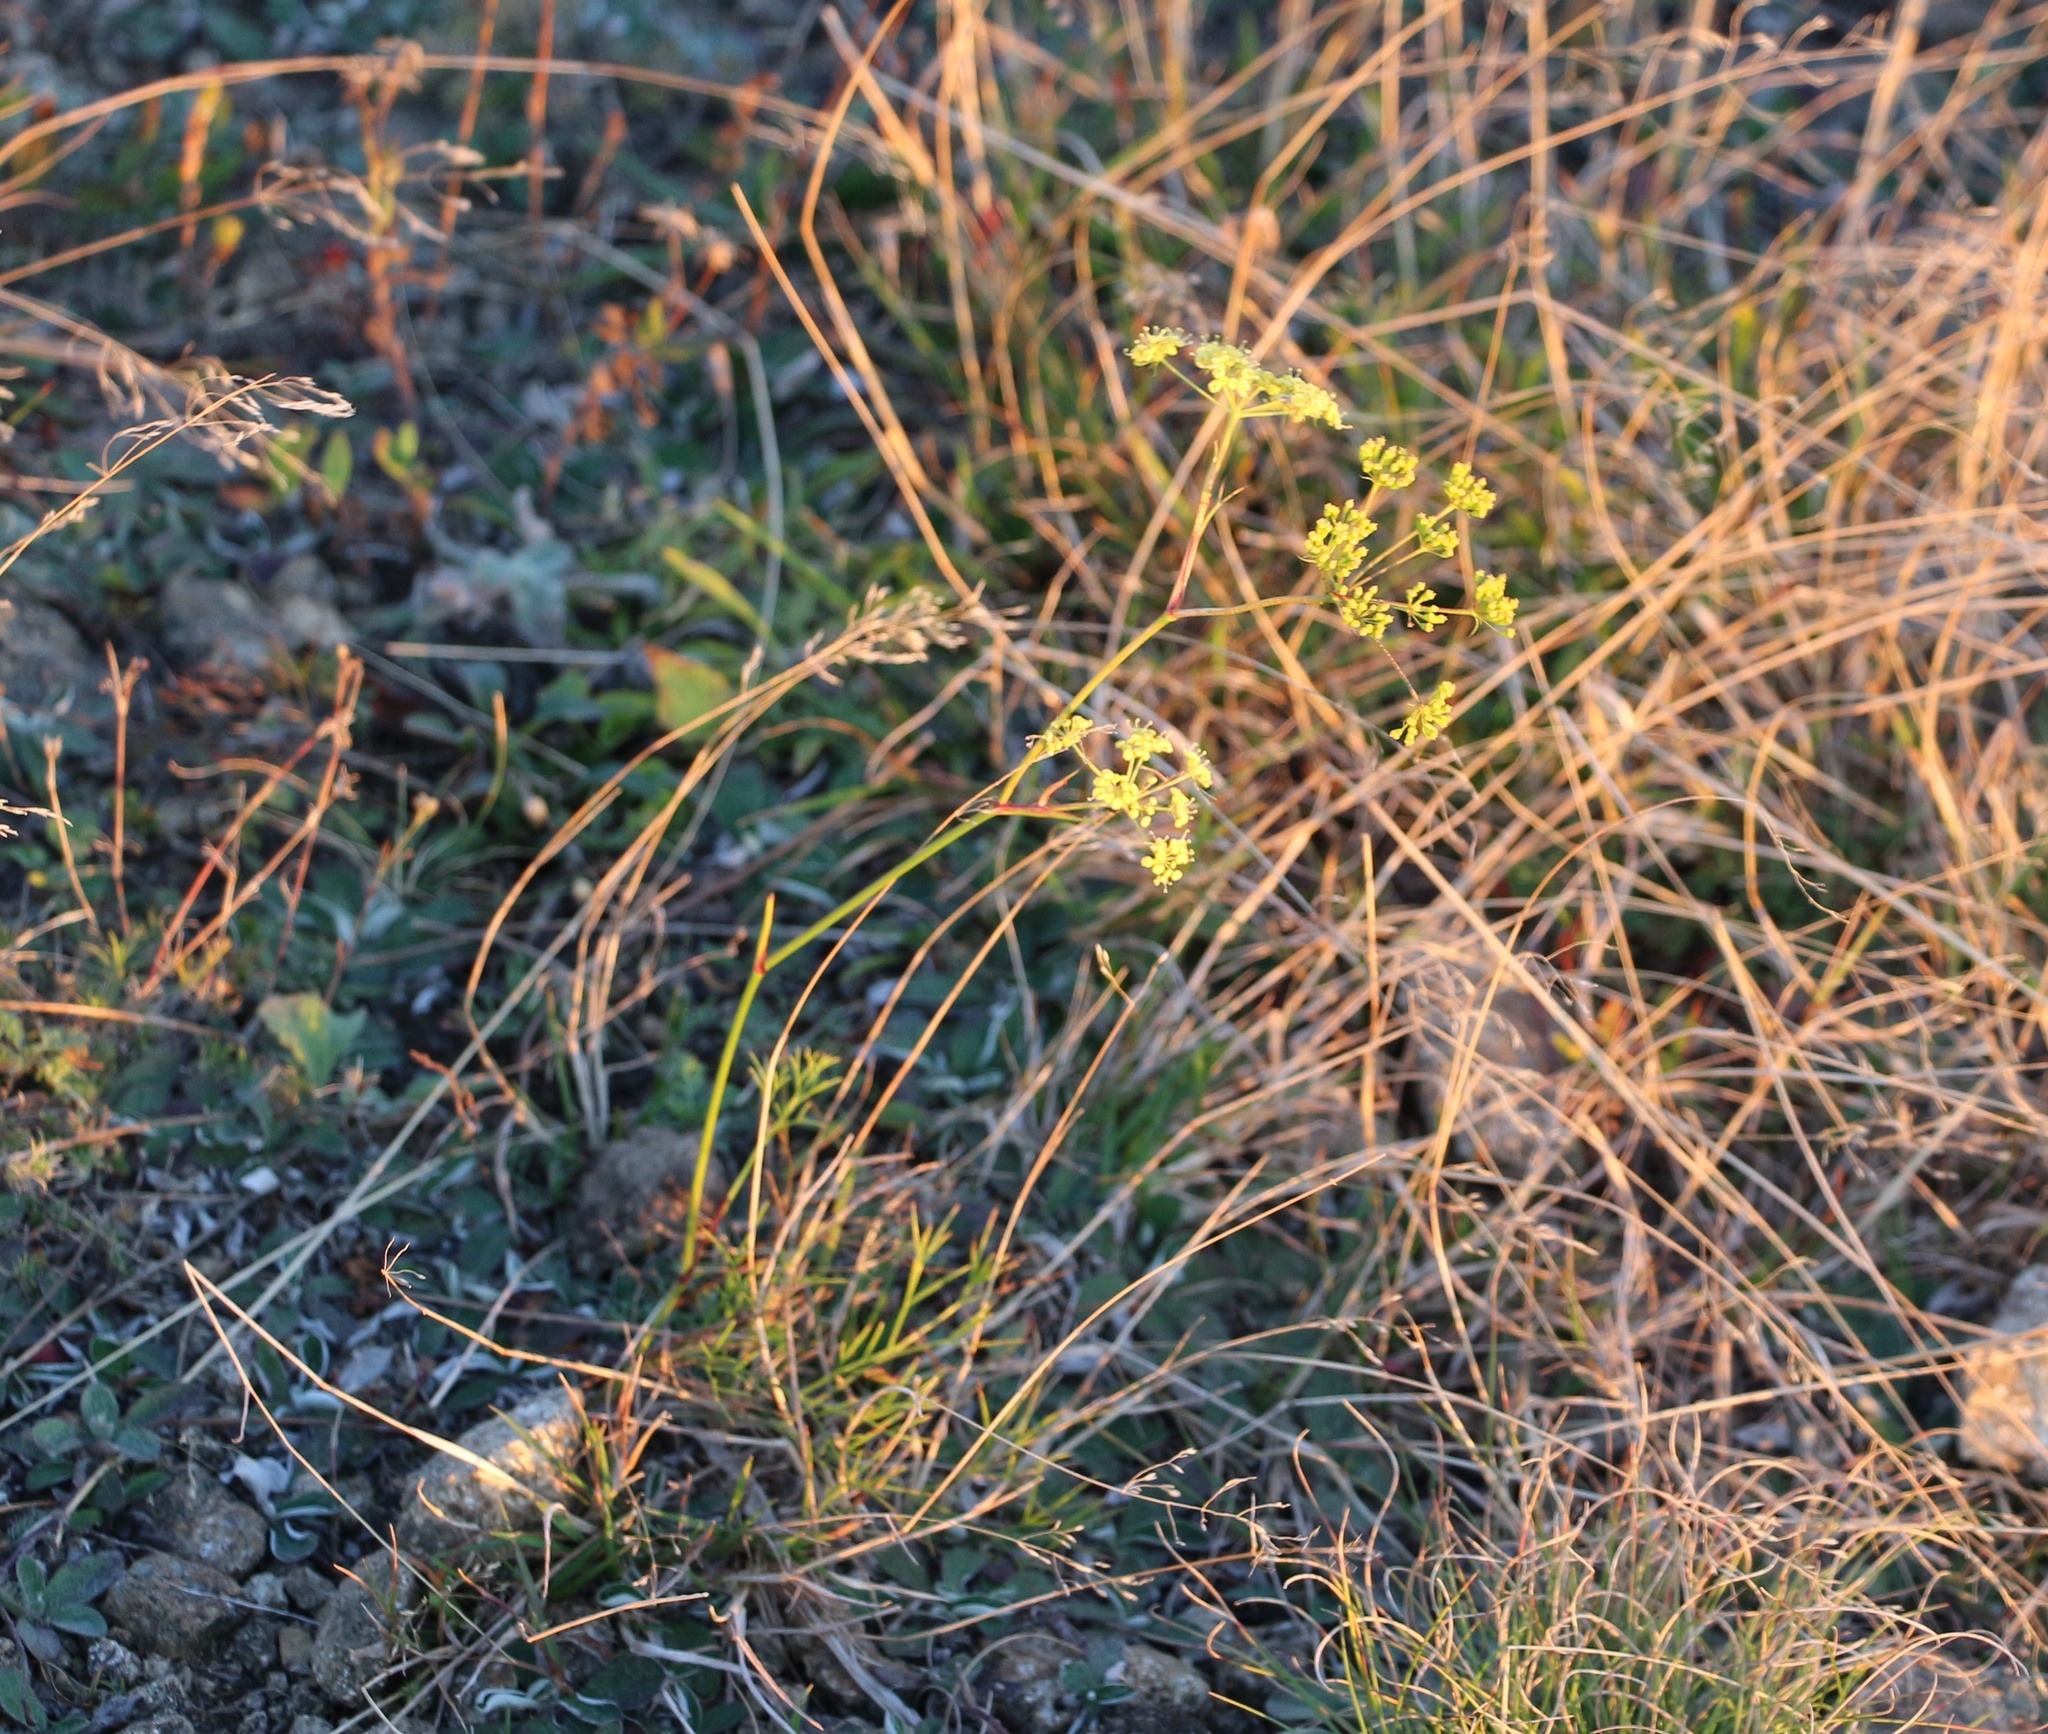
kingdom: Plantae
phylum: Tracheophyta
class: Magnoliopsida
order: Apiales
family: Apiaceae
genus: Peucedanum
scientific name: Peucedanum longifolium
